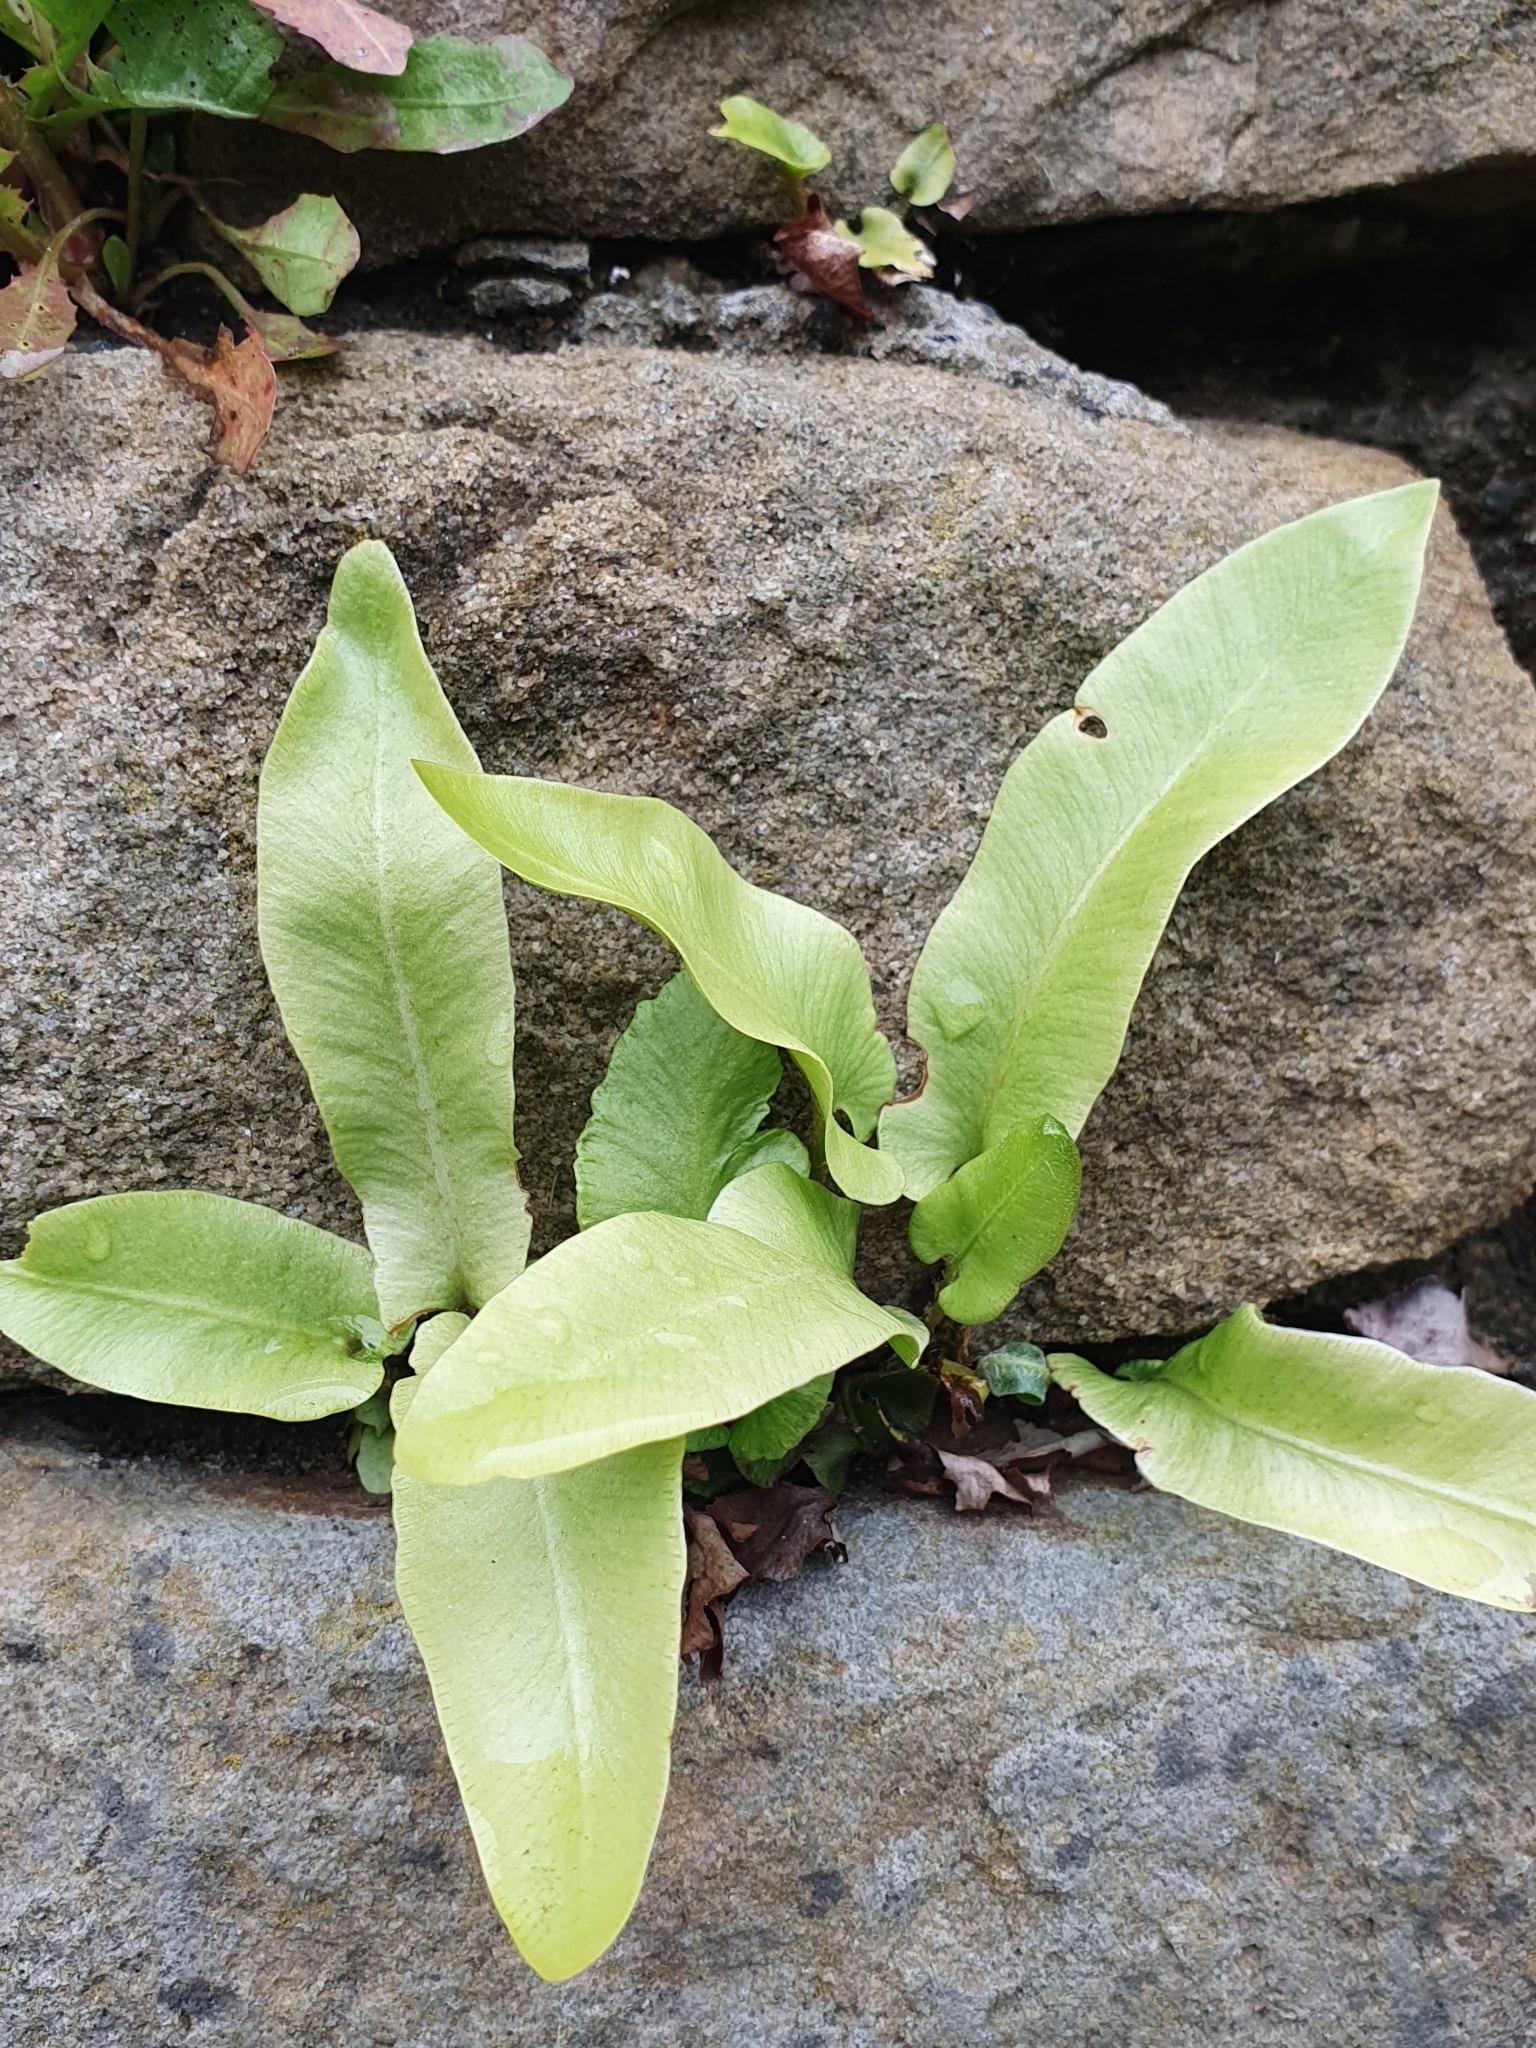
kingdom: Plantae
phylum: Tracheophyta
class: Polypodiopsida
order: Polypodiales
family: Aspleniaceae
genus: Asplenium
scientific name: Asplenium scolopendrium
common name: Hart's-tongue fern
